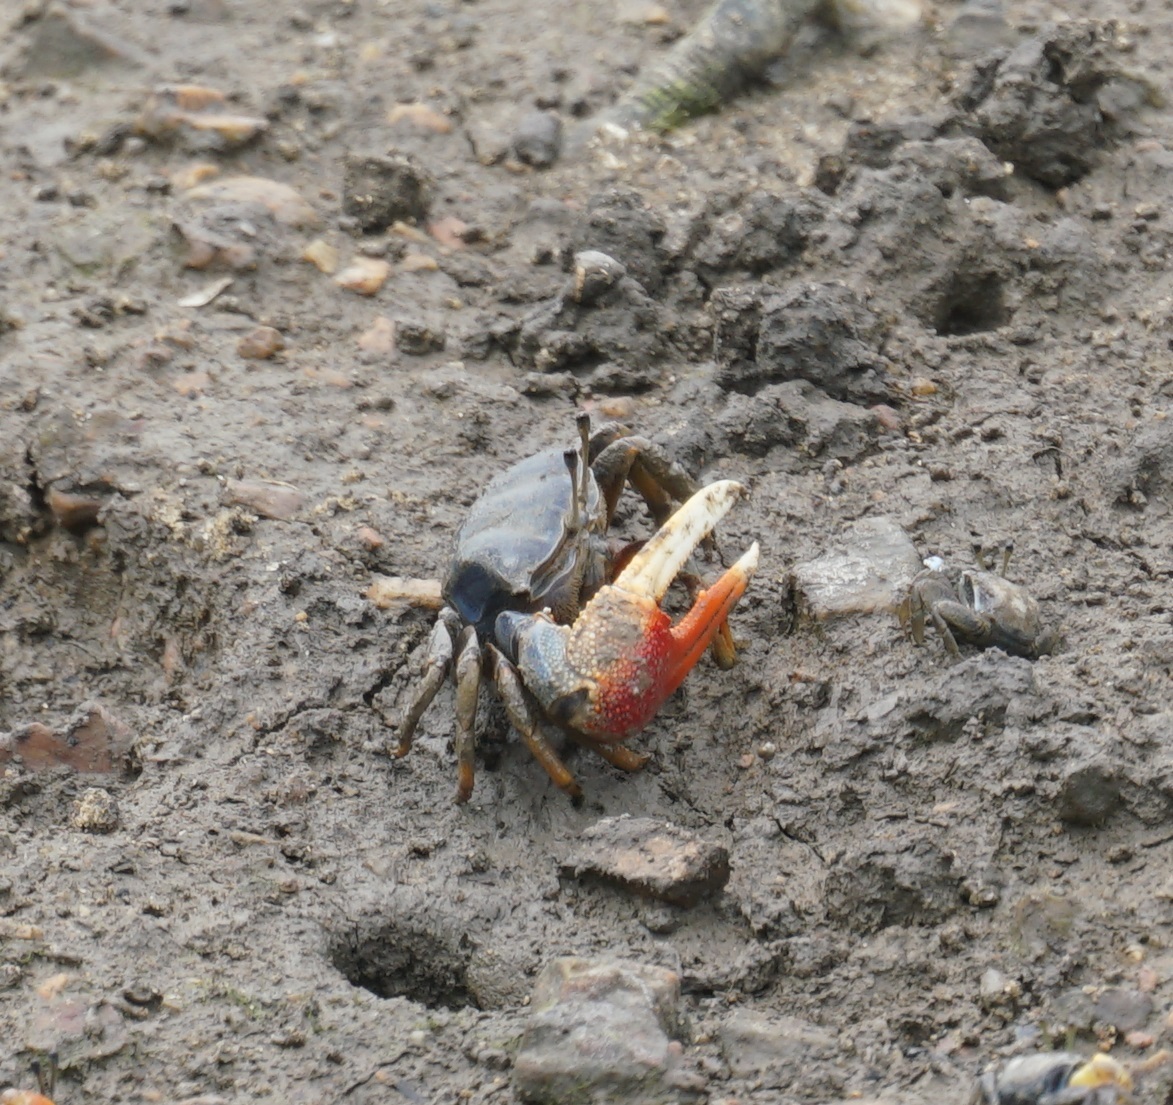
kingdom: Animalia
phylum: Arthropoda
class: Malacostraca
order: Decapoda
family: Ocypodidae
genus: Tubuca
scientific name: Tubuca dussumieri
